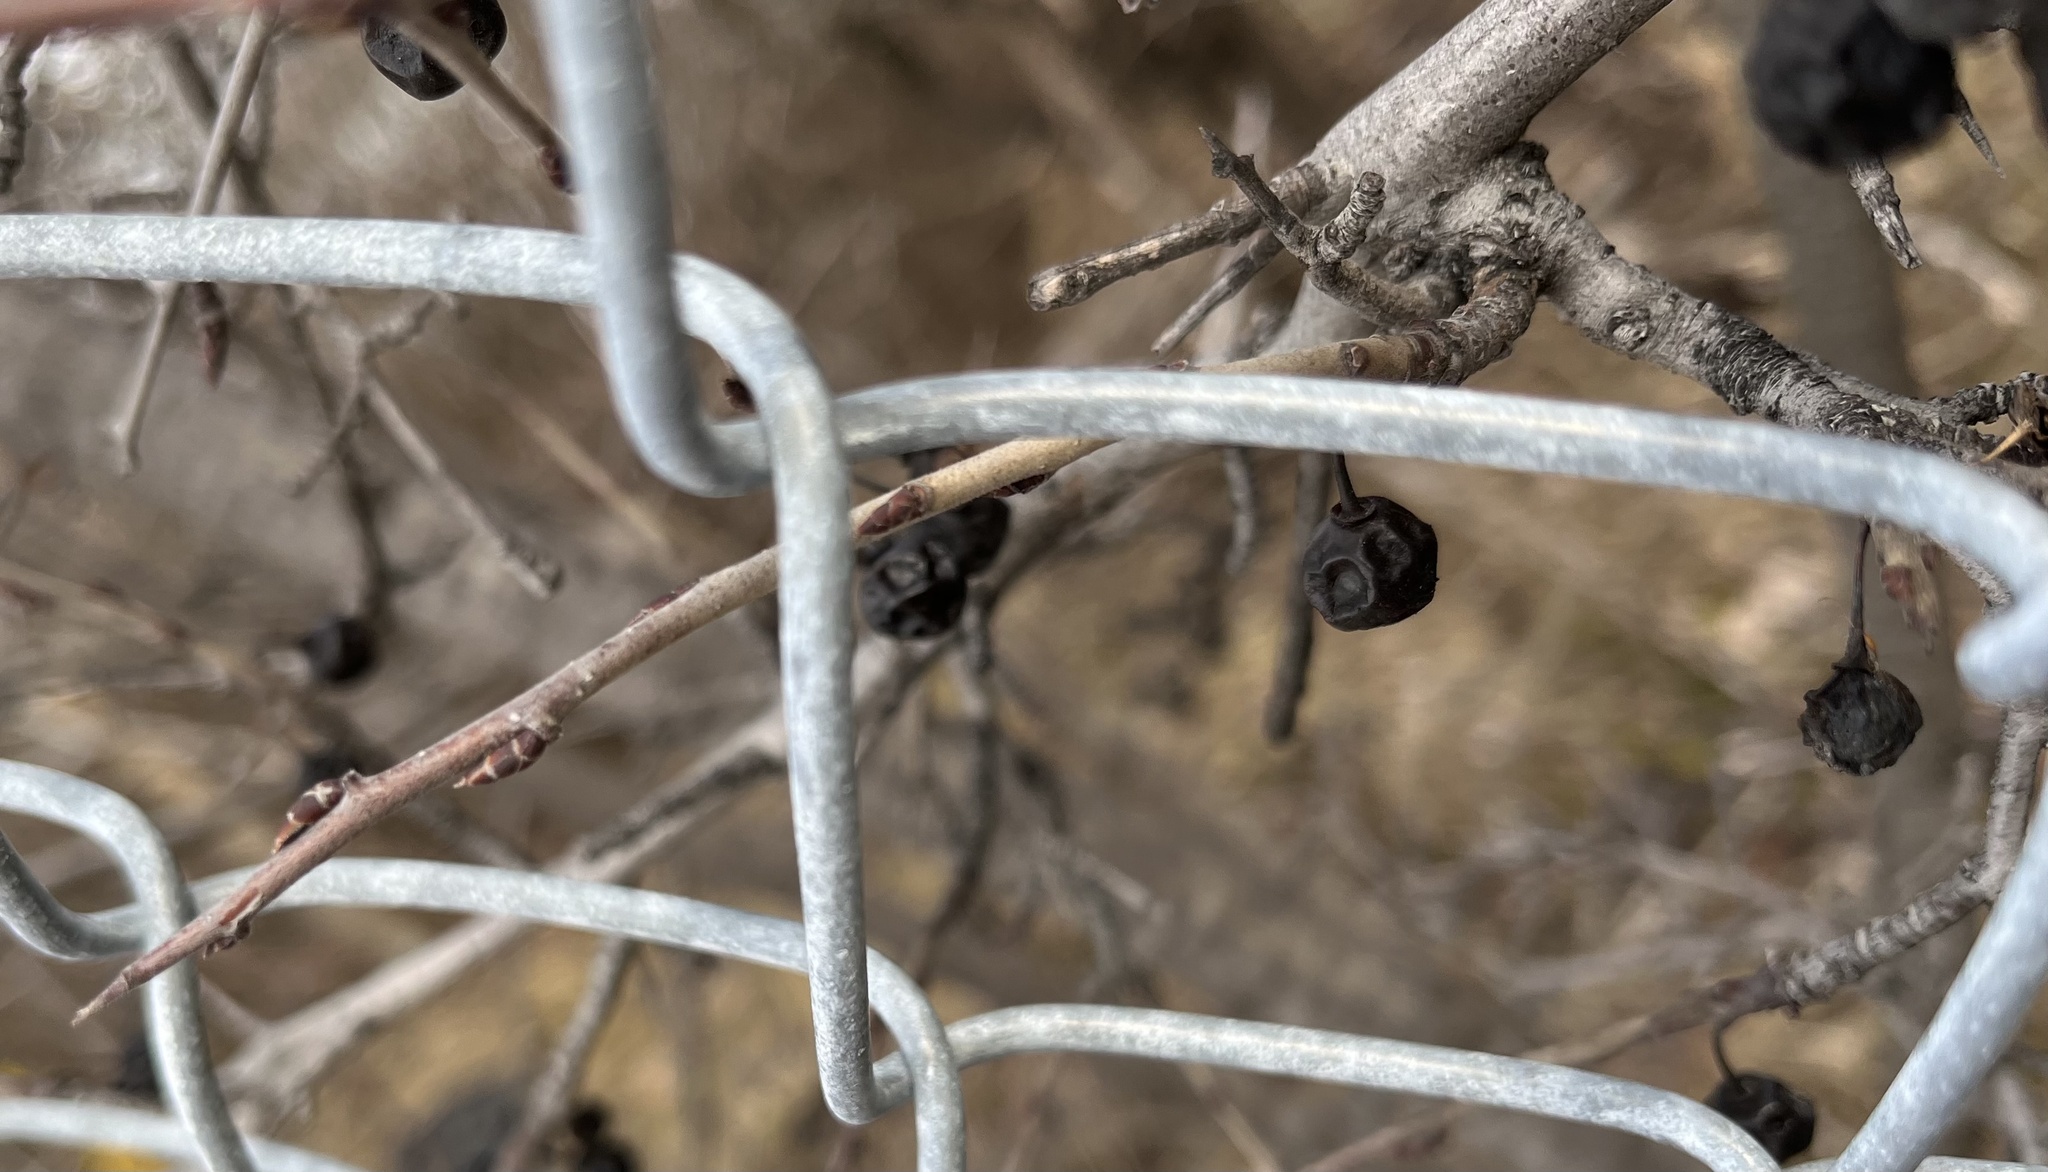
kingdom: Plantae
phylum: Tracheophyta
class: Magnoliopsida
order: Rosales
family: Rhamnaceae
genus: Rhamnus
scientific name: Rhamnus cathartica
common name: Common buckthorn
